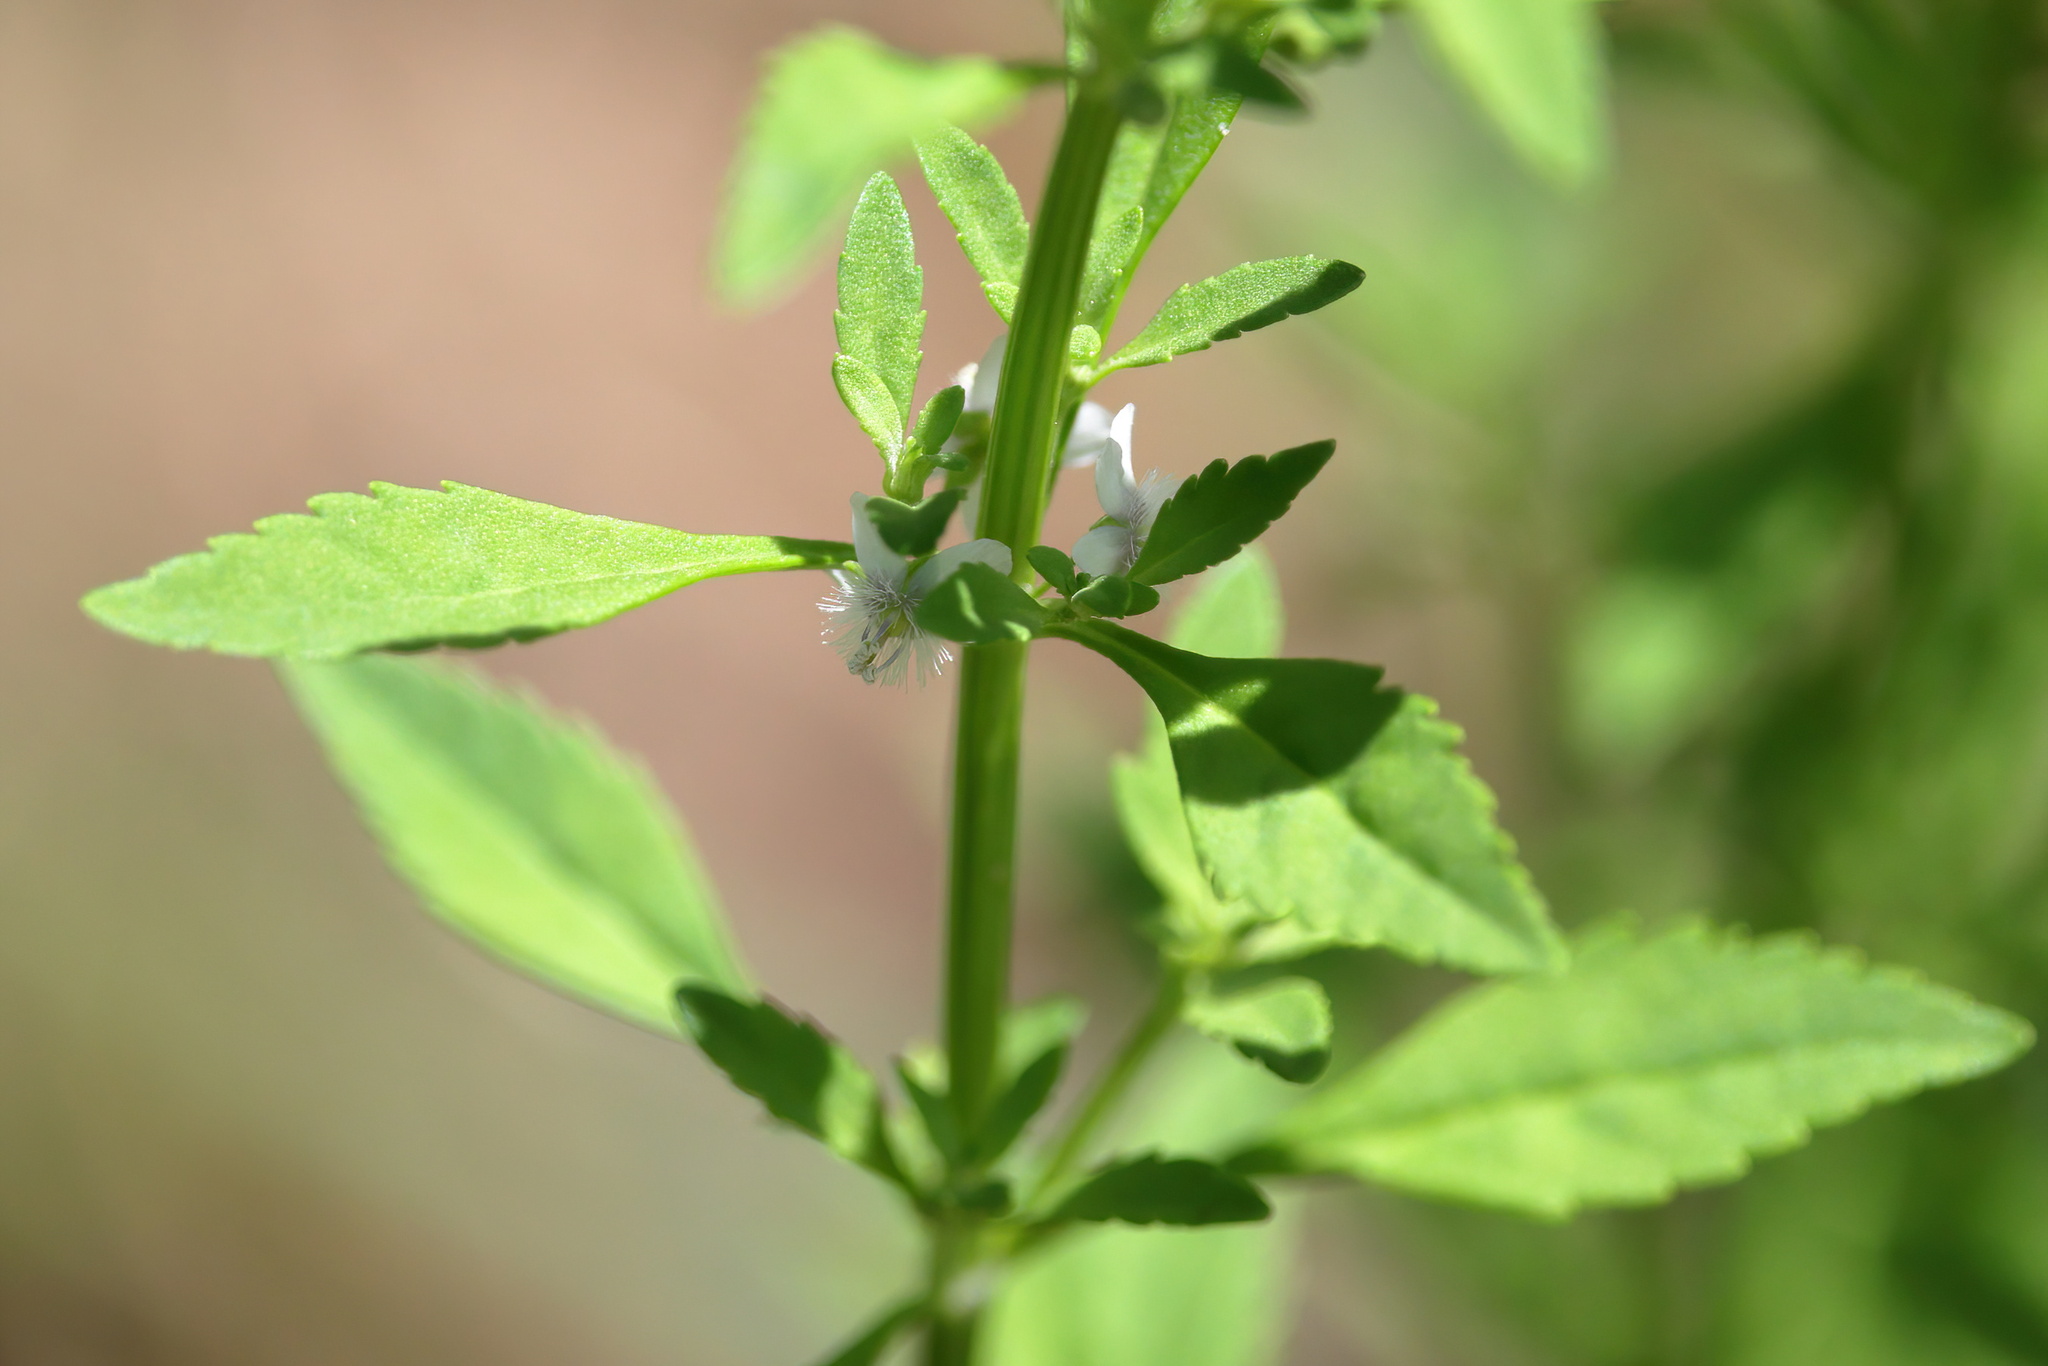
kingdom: Plantae
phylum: Tracheophyta
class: Magnoliopsida
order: Lamiales
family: Plantaginaceae
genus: Scoparia
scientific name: Scoparia dulcis
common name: Scoparia-weed
